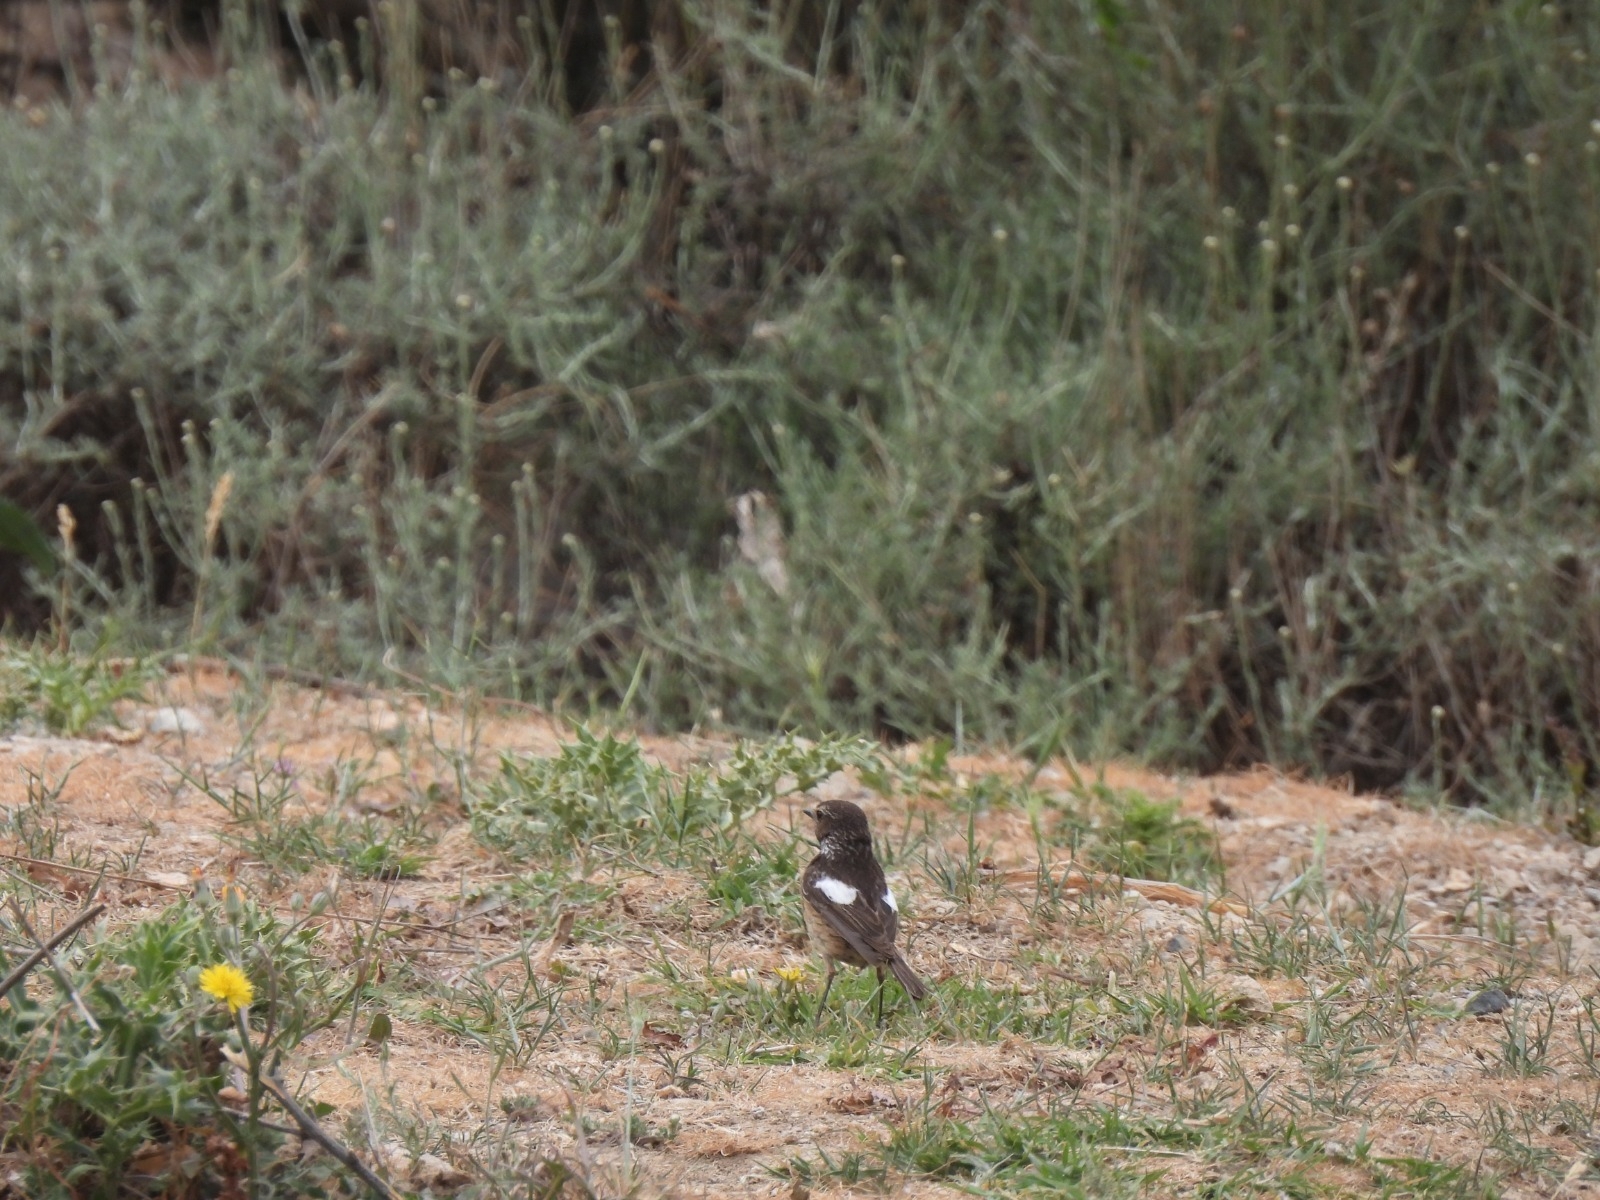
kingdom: Animalia
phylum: Chordata
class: Aves
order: Passeriformes
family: Muscicapidae
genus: Saxicola
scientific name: Saxicola rubicola
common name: European stonechat
